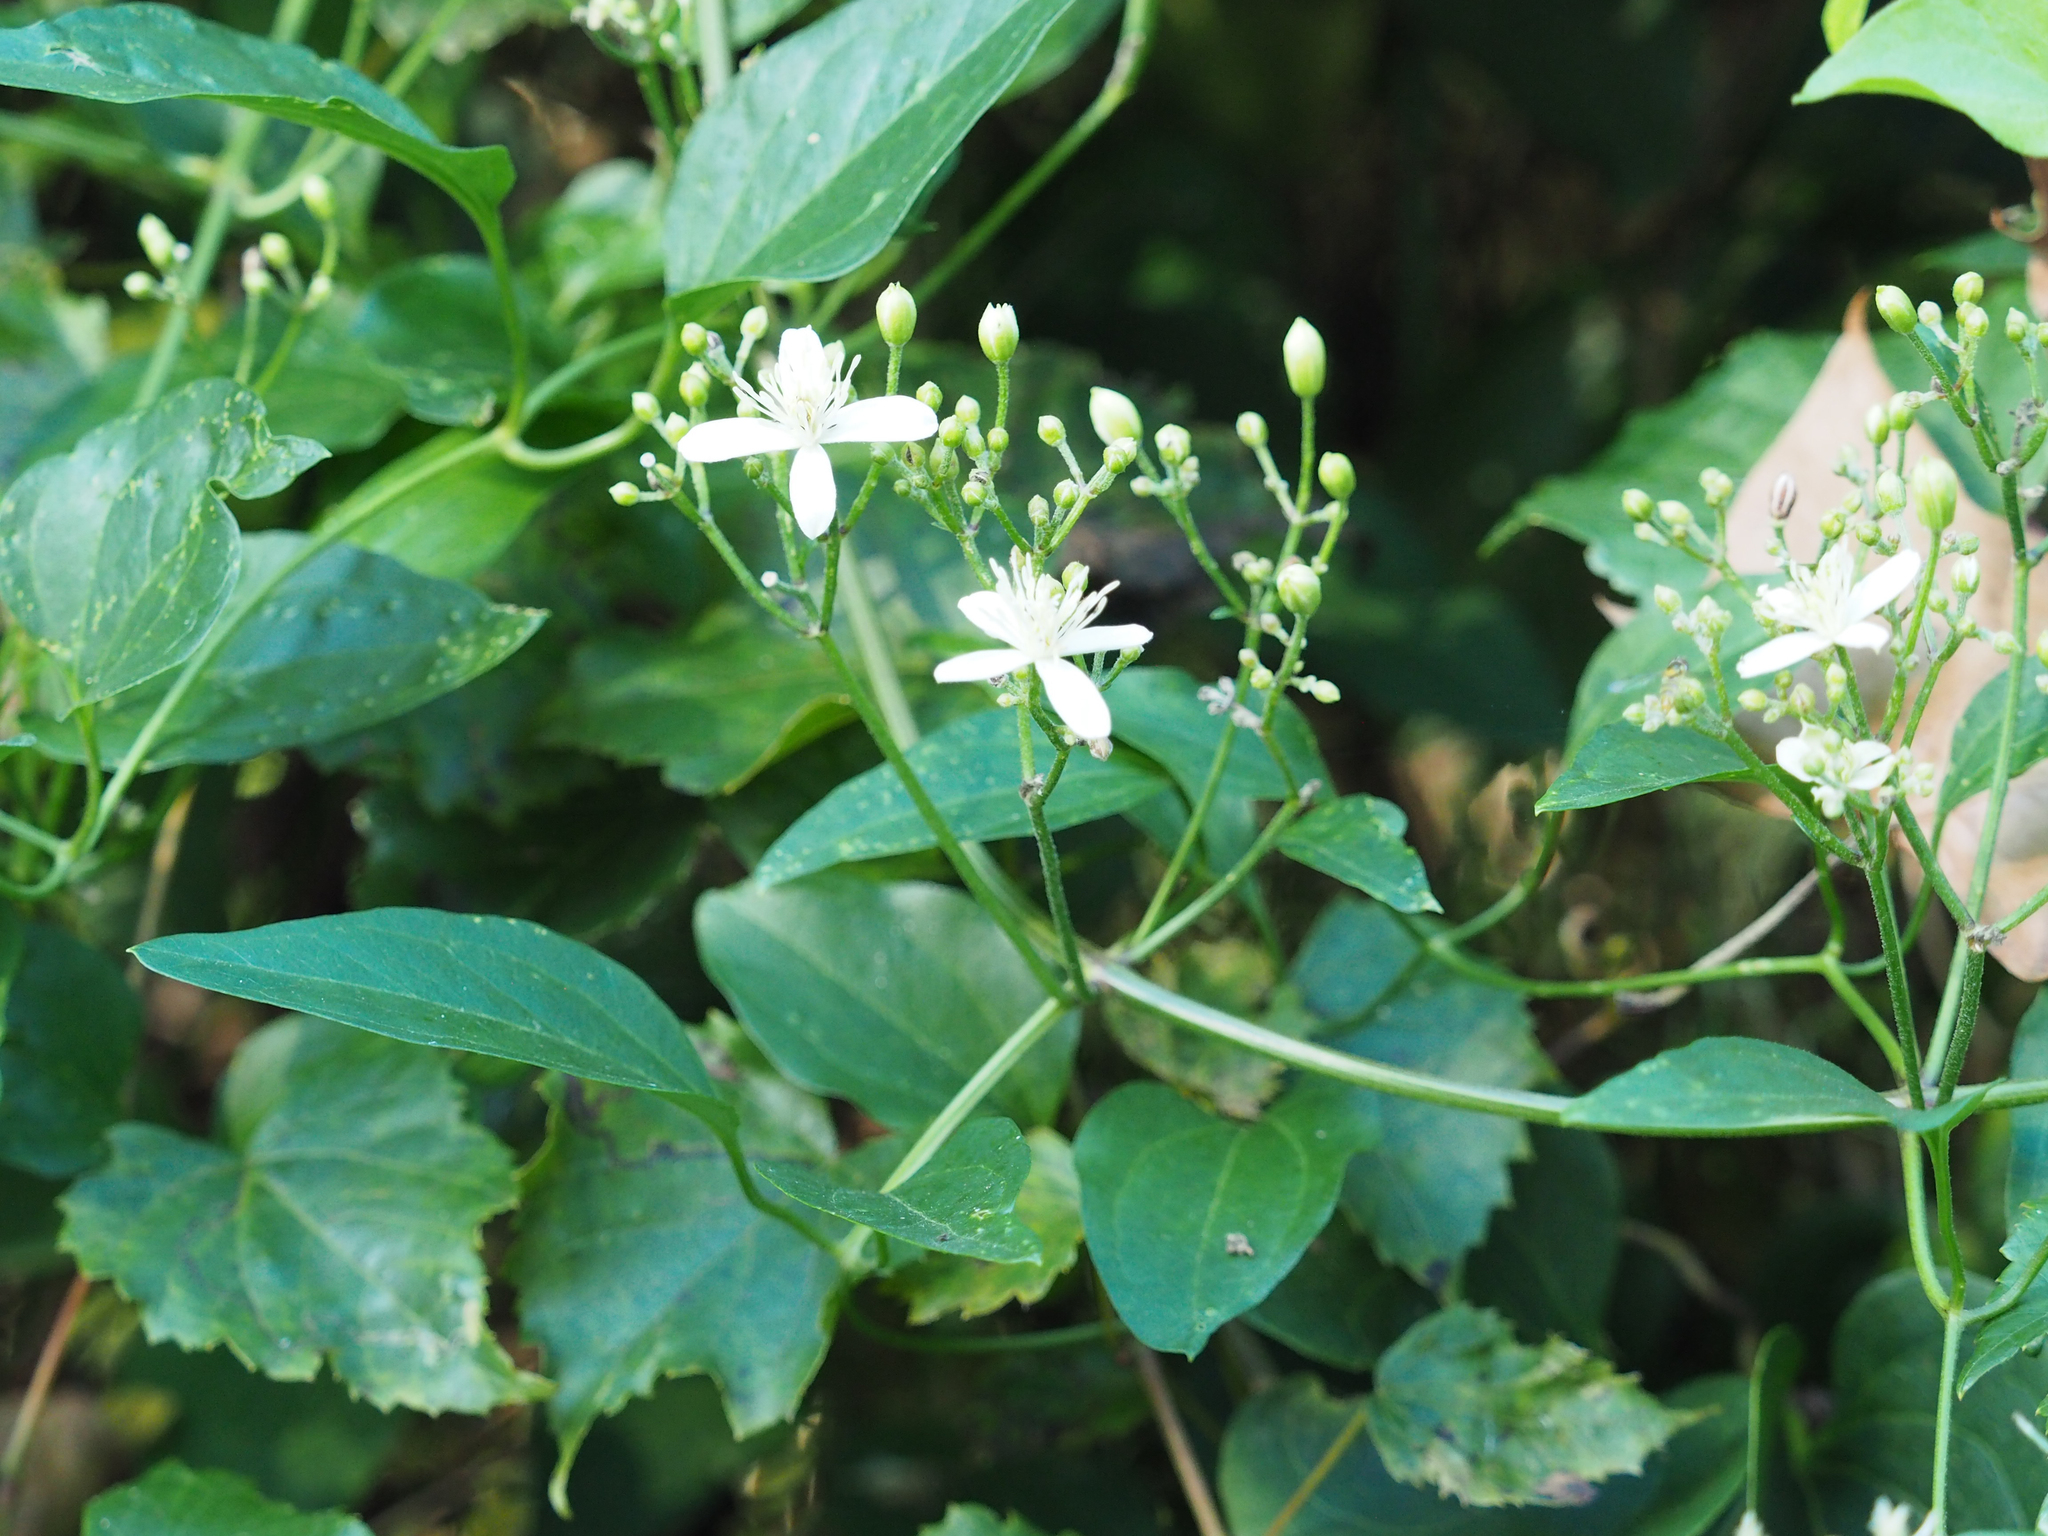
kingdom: Plantae
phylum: Tracheophyta
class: Magnoliopsida
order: Ranunculales
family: Ranunculaceae
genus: Clematis
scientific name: Clematis terniflora
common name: Sweet autumn clematis
